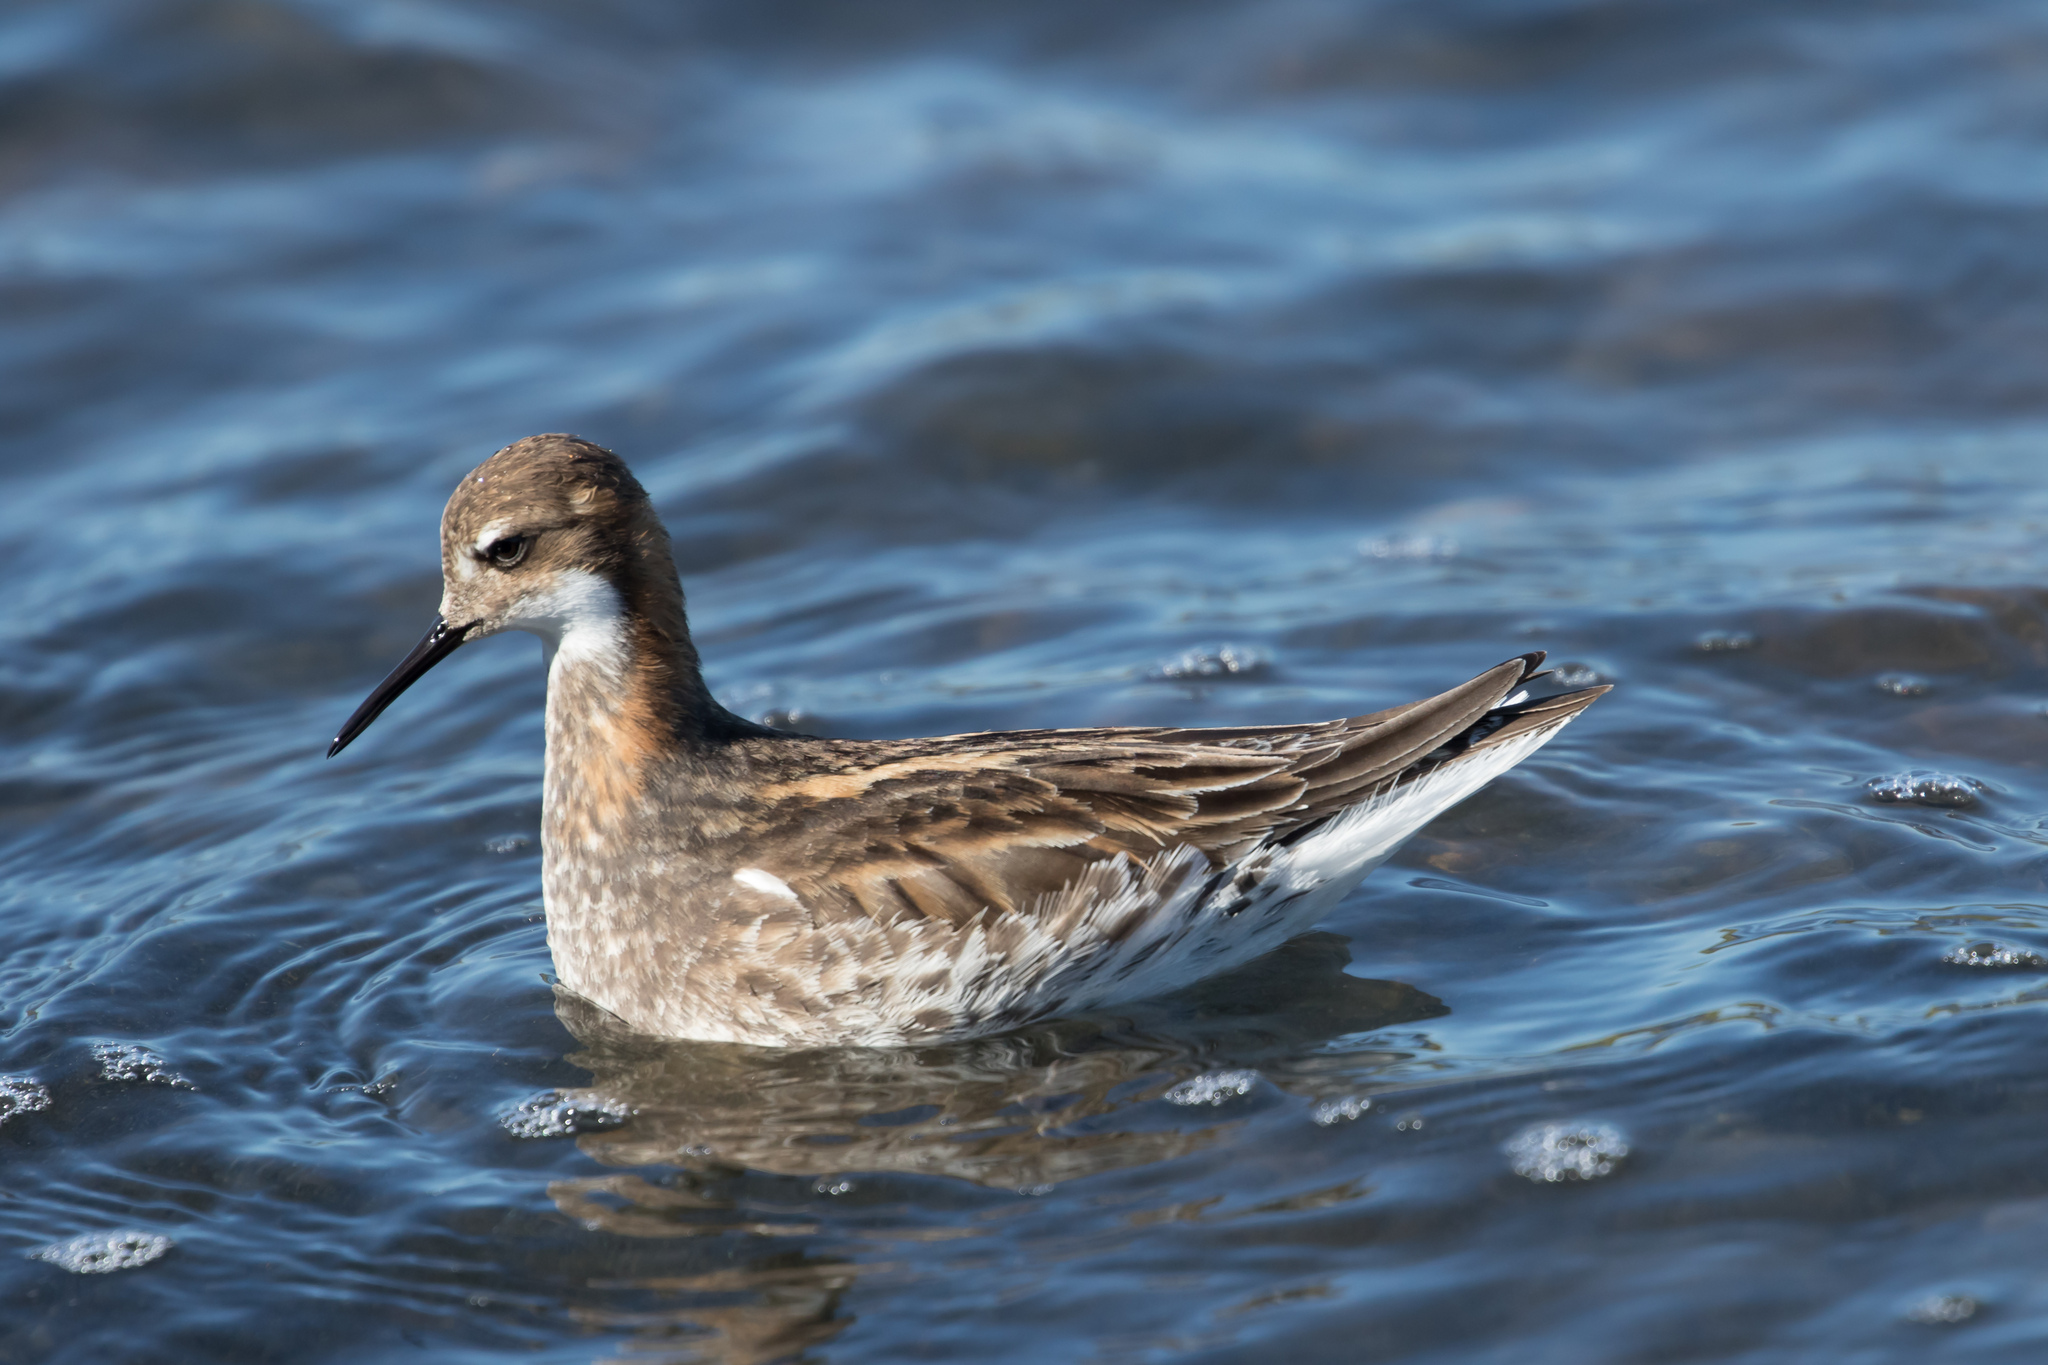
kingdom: Animalia
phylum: Chordata
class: Aves
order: Charadriiformes
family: Scolopacidae
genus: Phalaropus
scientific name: Phalaropus lobatus
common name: Red-necked phalarope
